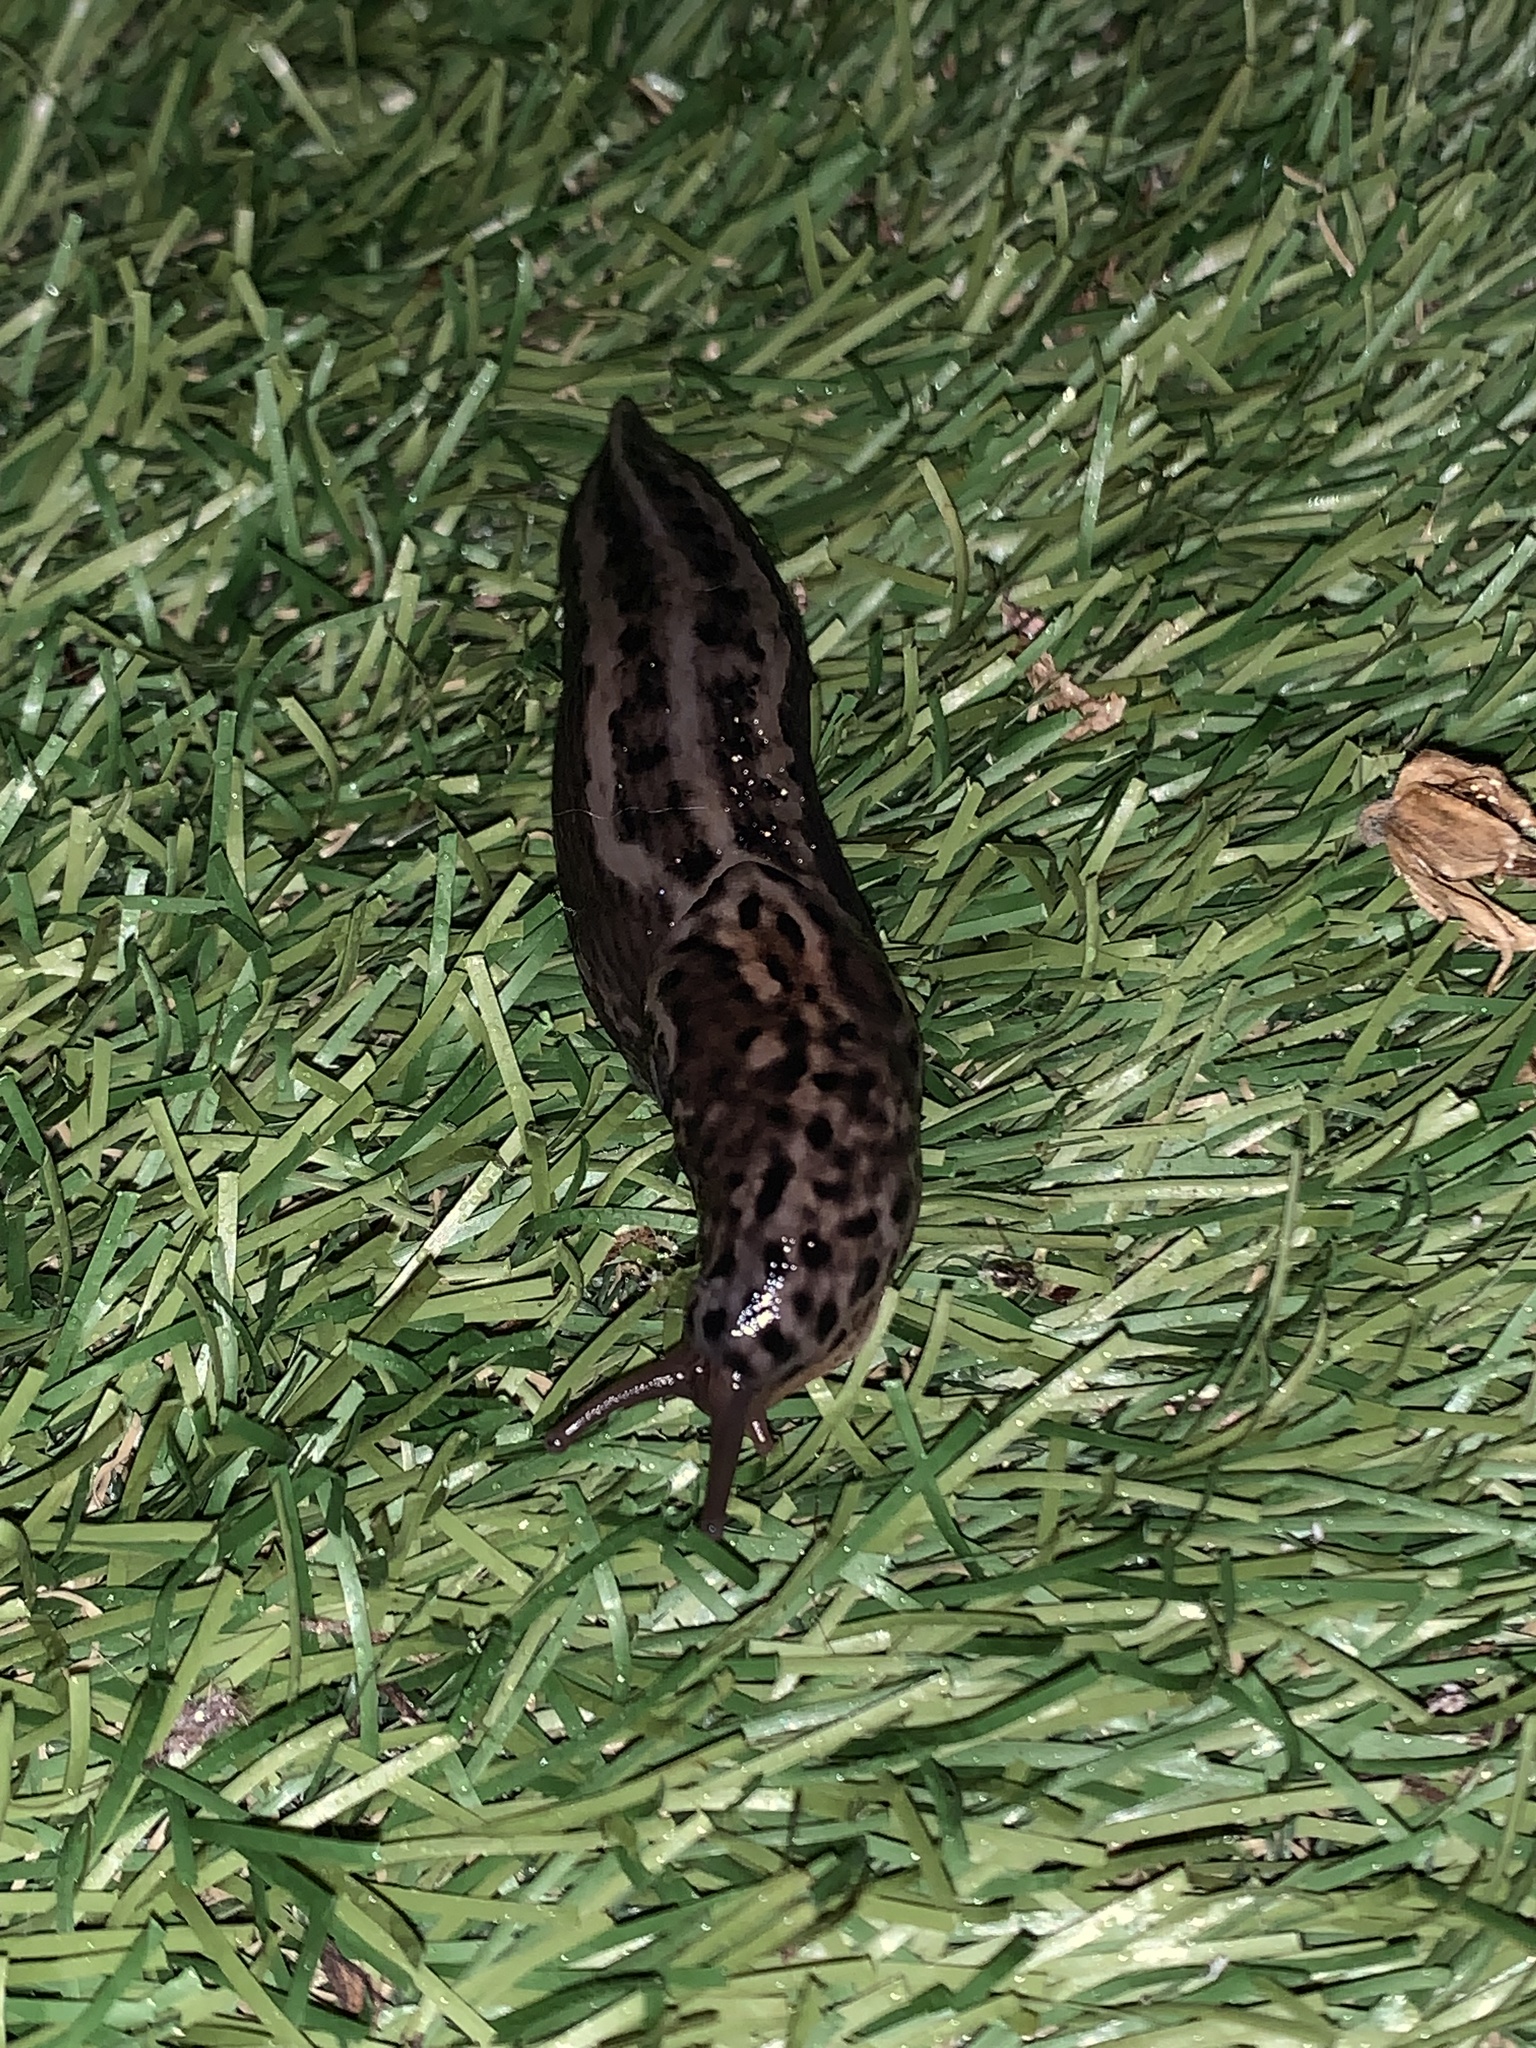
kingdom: Animalia
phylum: Mollusca
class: Gastropoda
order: Stylommatophora
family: Limacidae
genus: Limax
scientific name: Limax maximus
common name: Great grey slug
